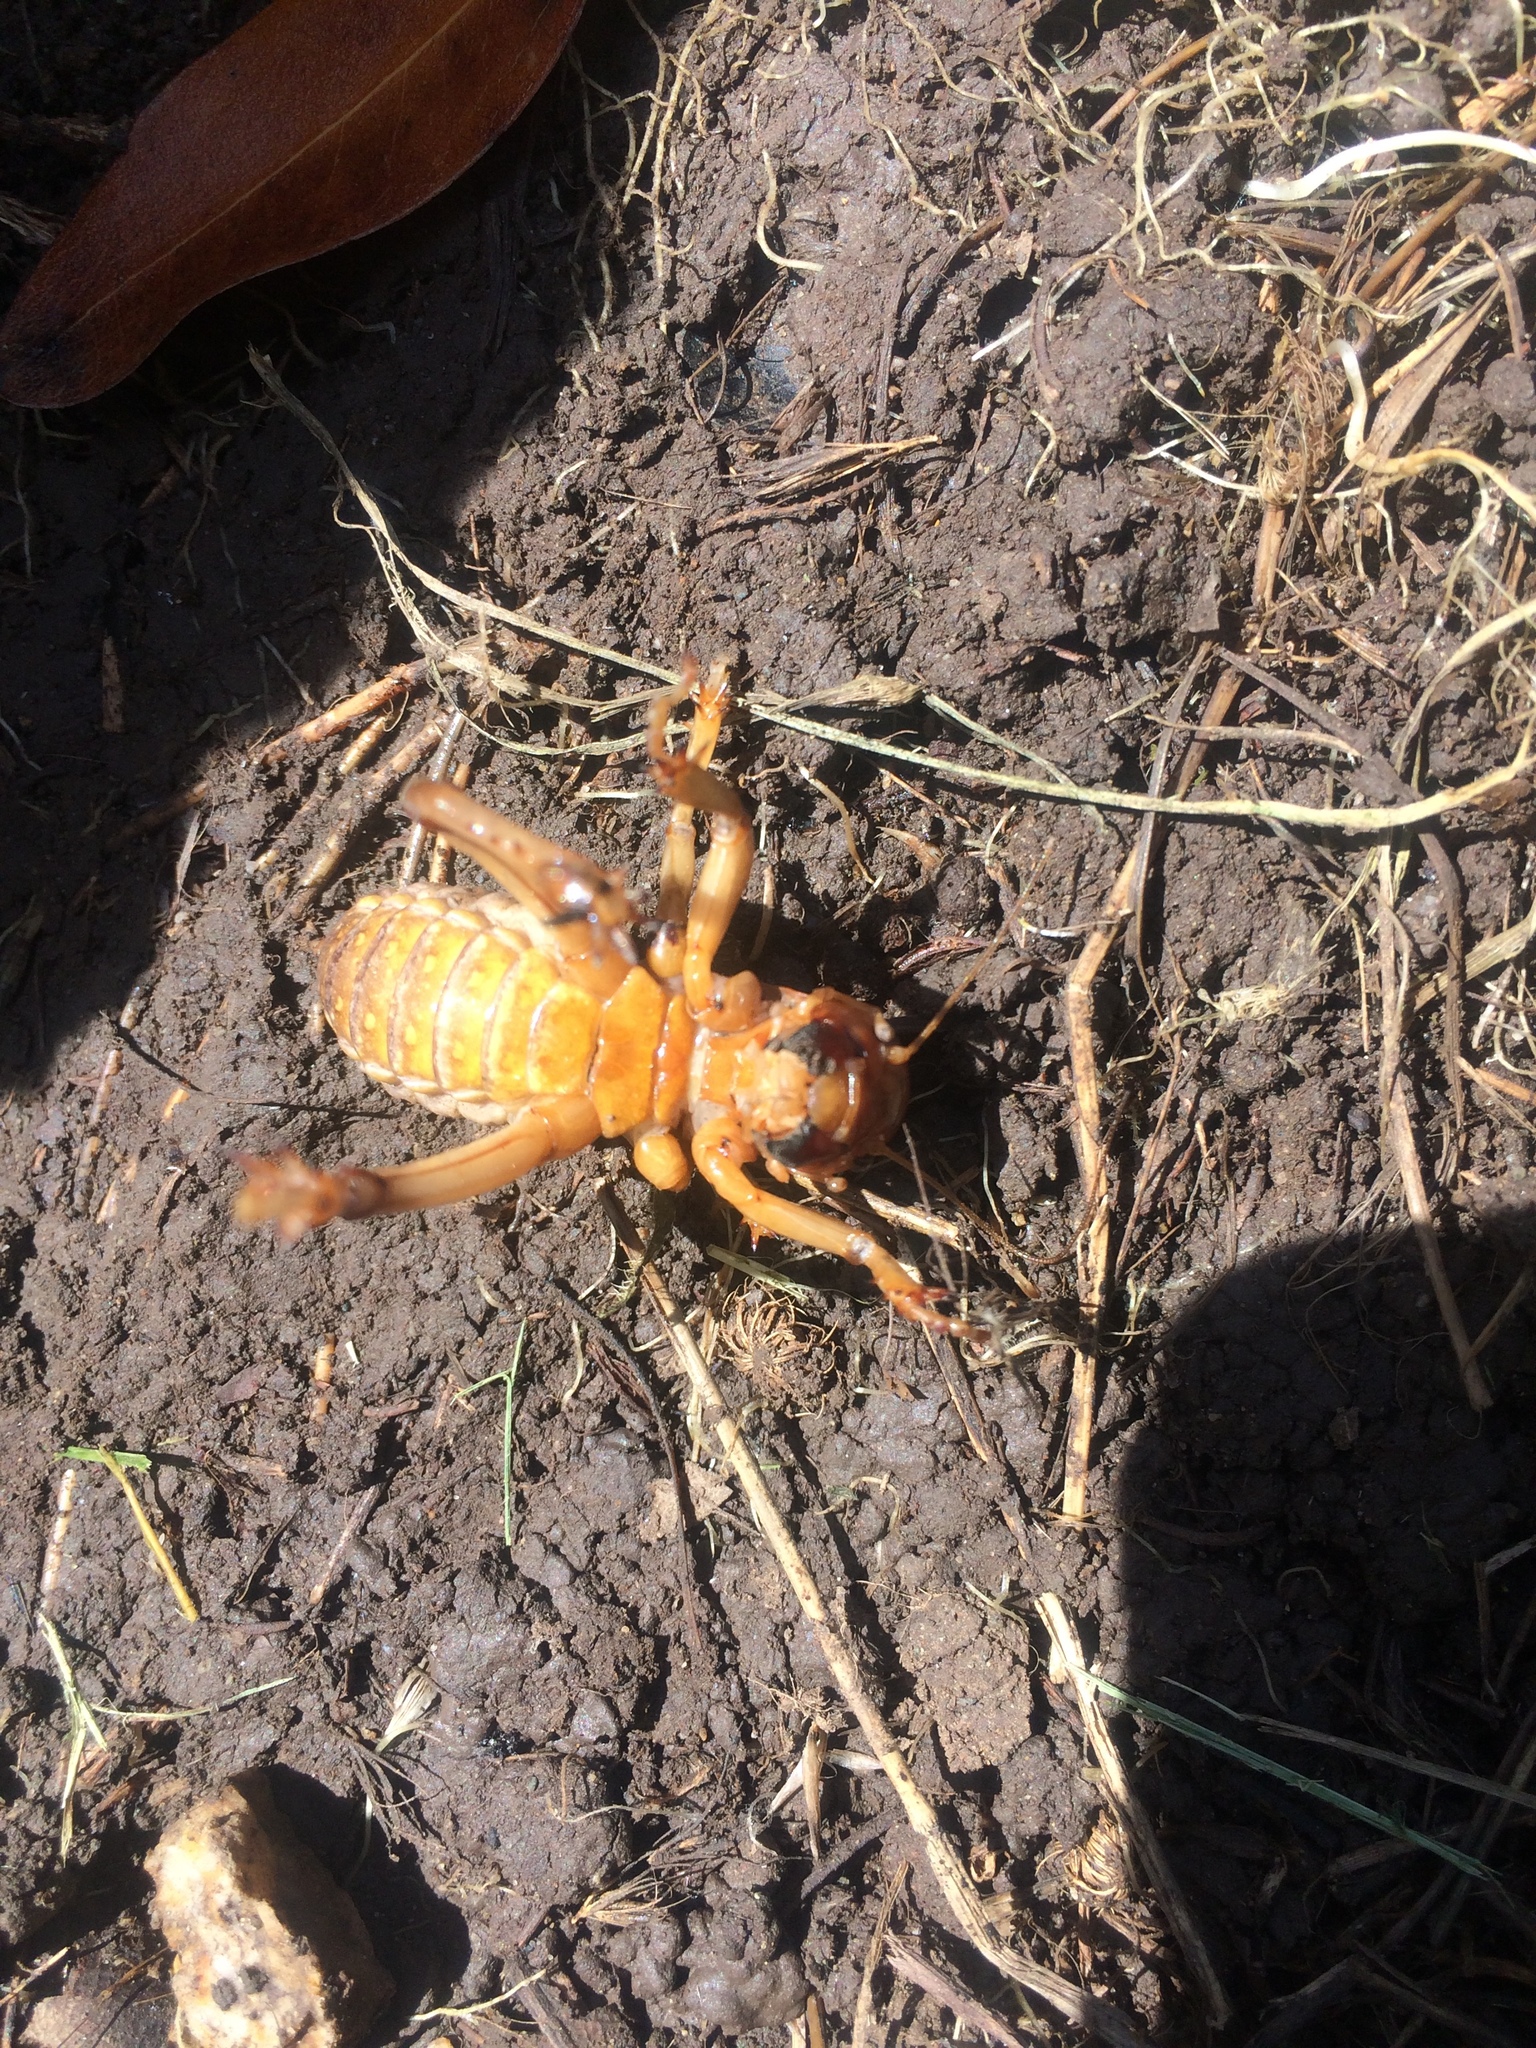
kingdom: Animalia
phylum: Arthropoda
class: Insecta
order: Orthoptera
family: Stenopelmatidae
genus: Ammopelmatus
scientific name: Ammopelmatus
